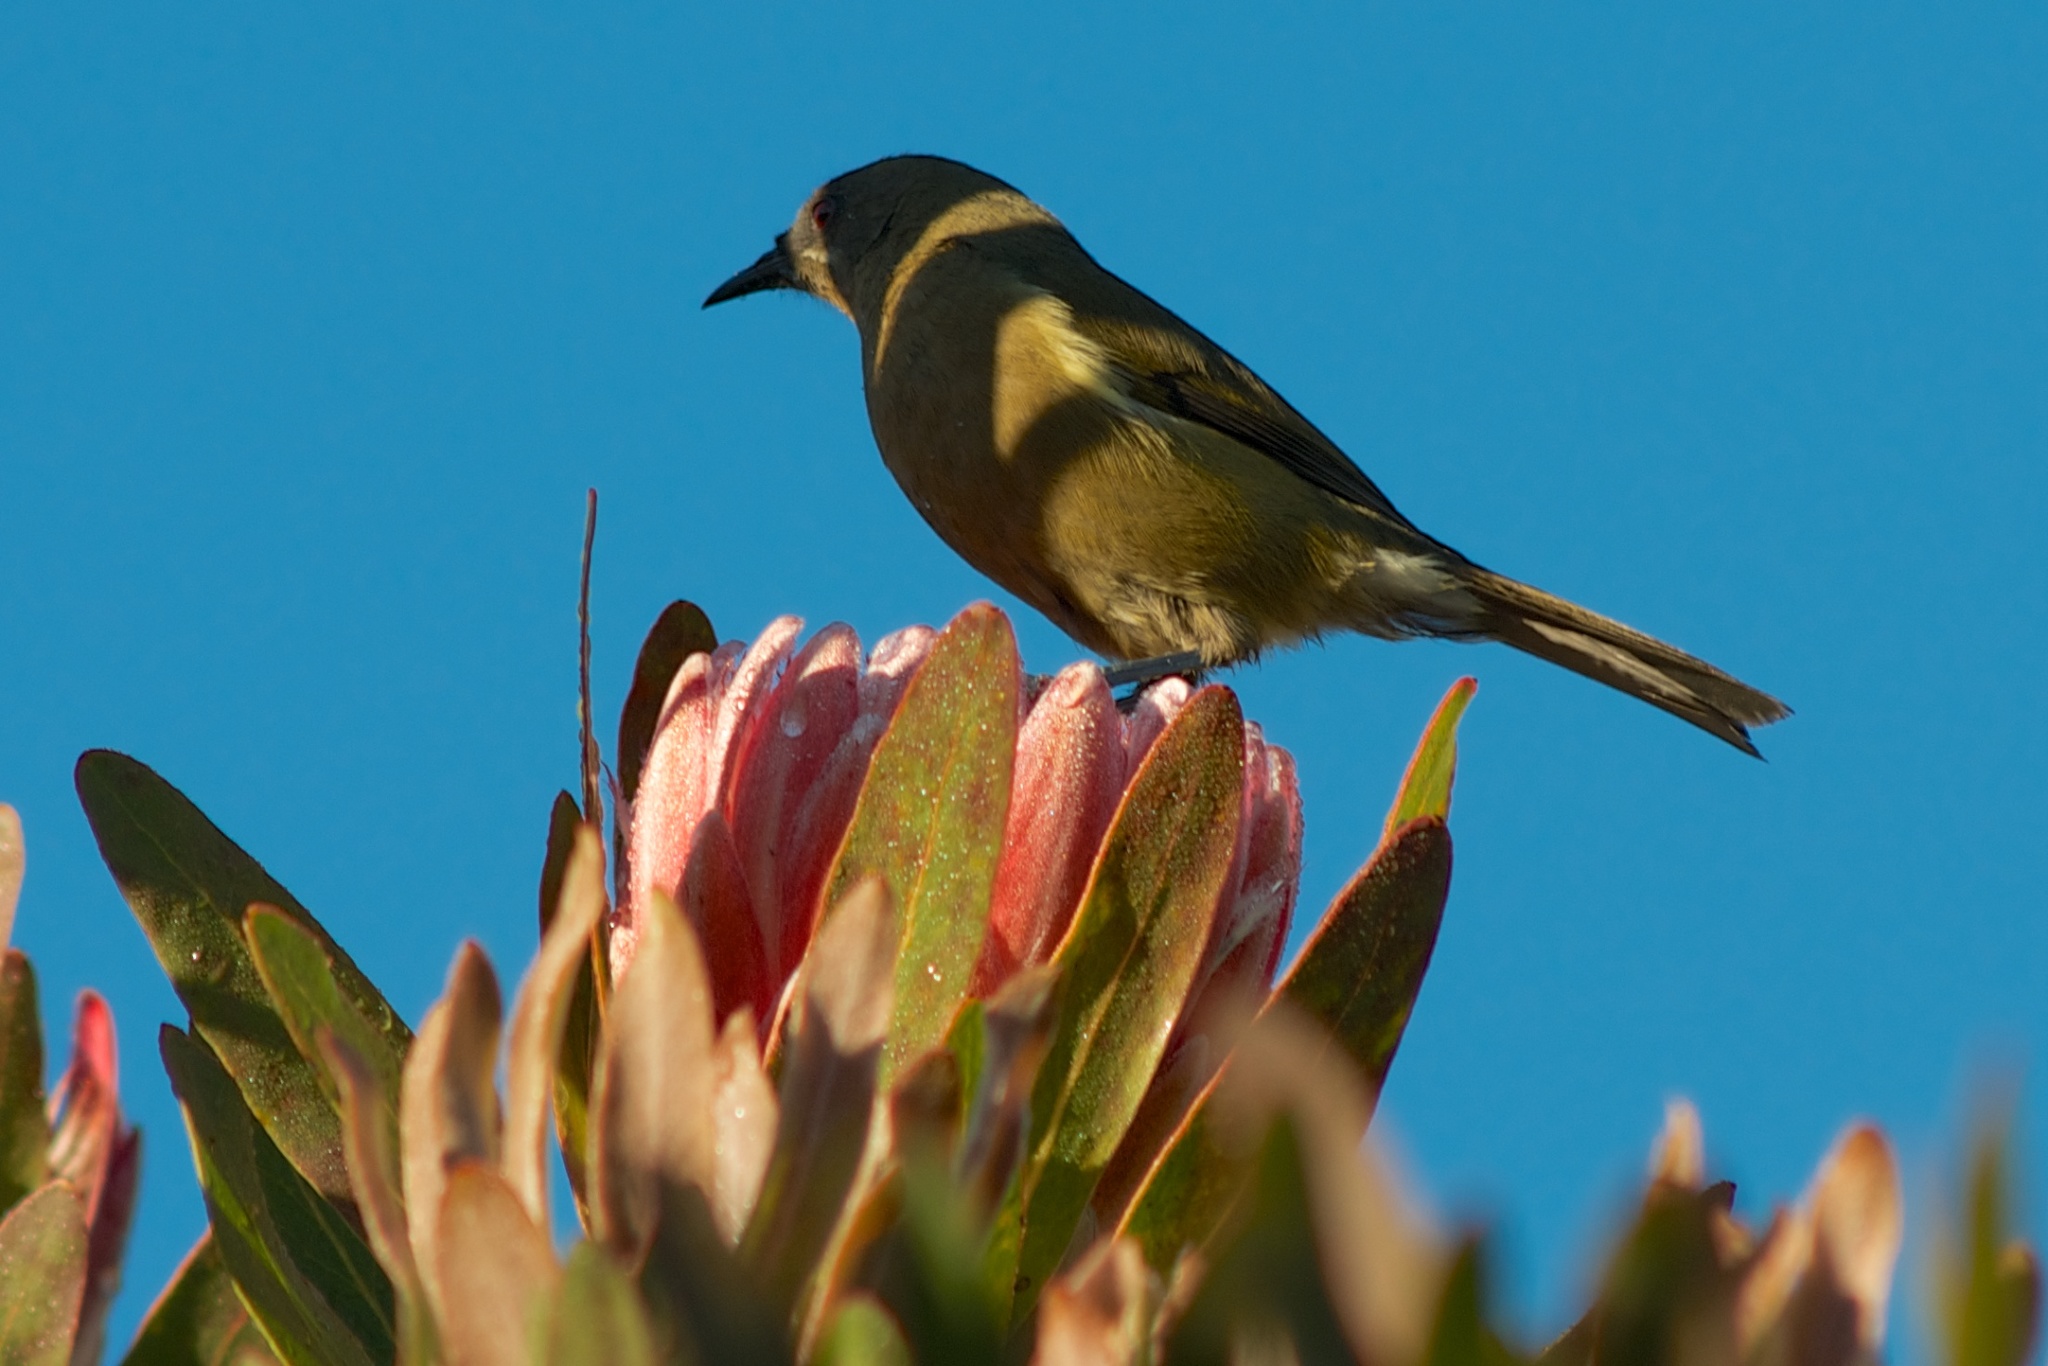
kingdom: Animalia
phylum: Chordata
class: Aves
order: Passeriformes
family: Meliphagidae
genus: Anthornis
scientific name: Anthornis melanura
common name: New zealand bellbird
